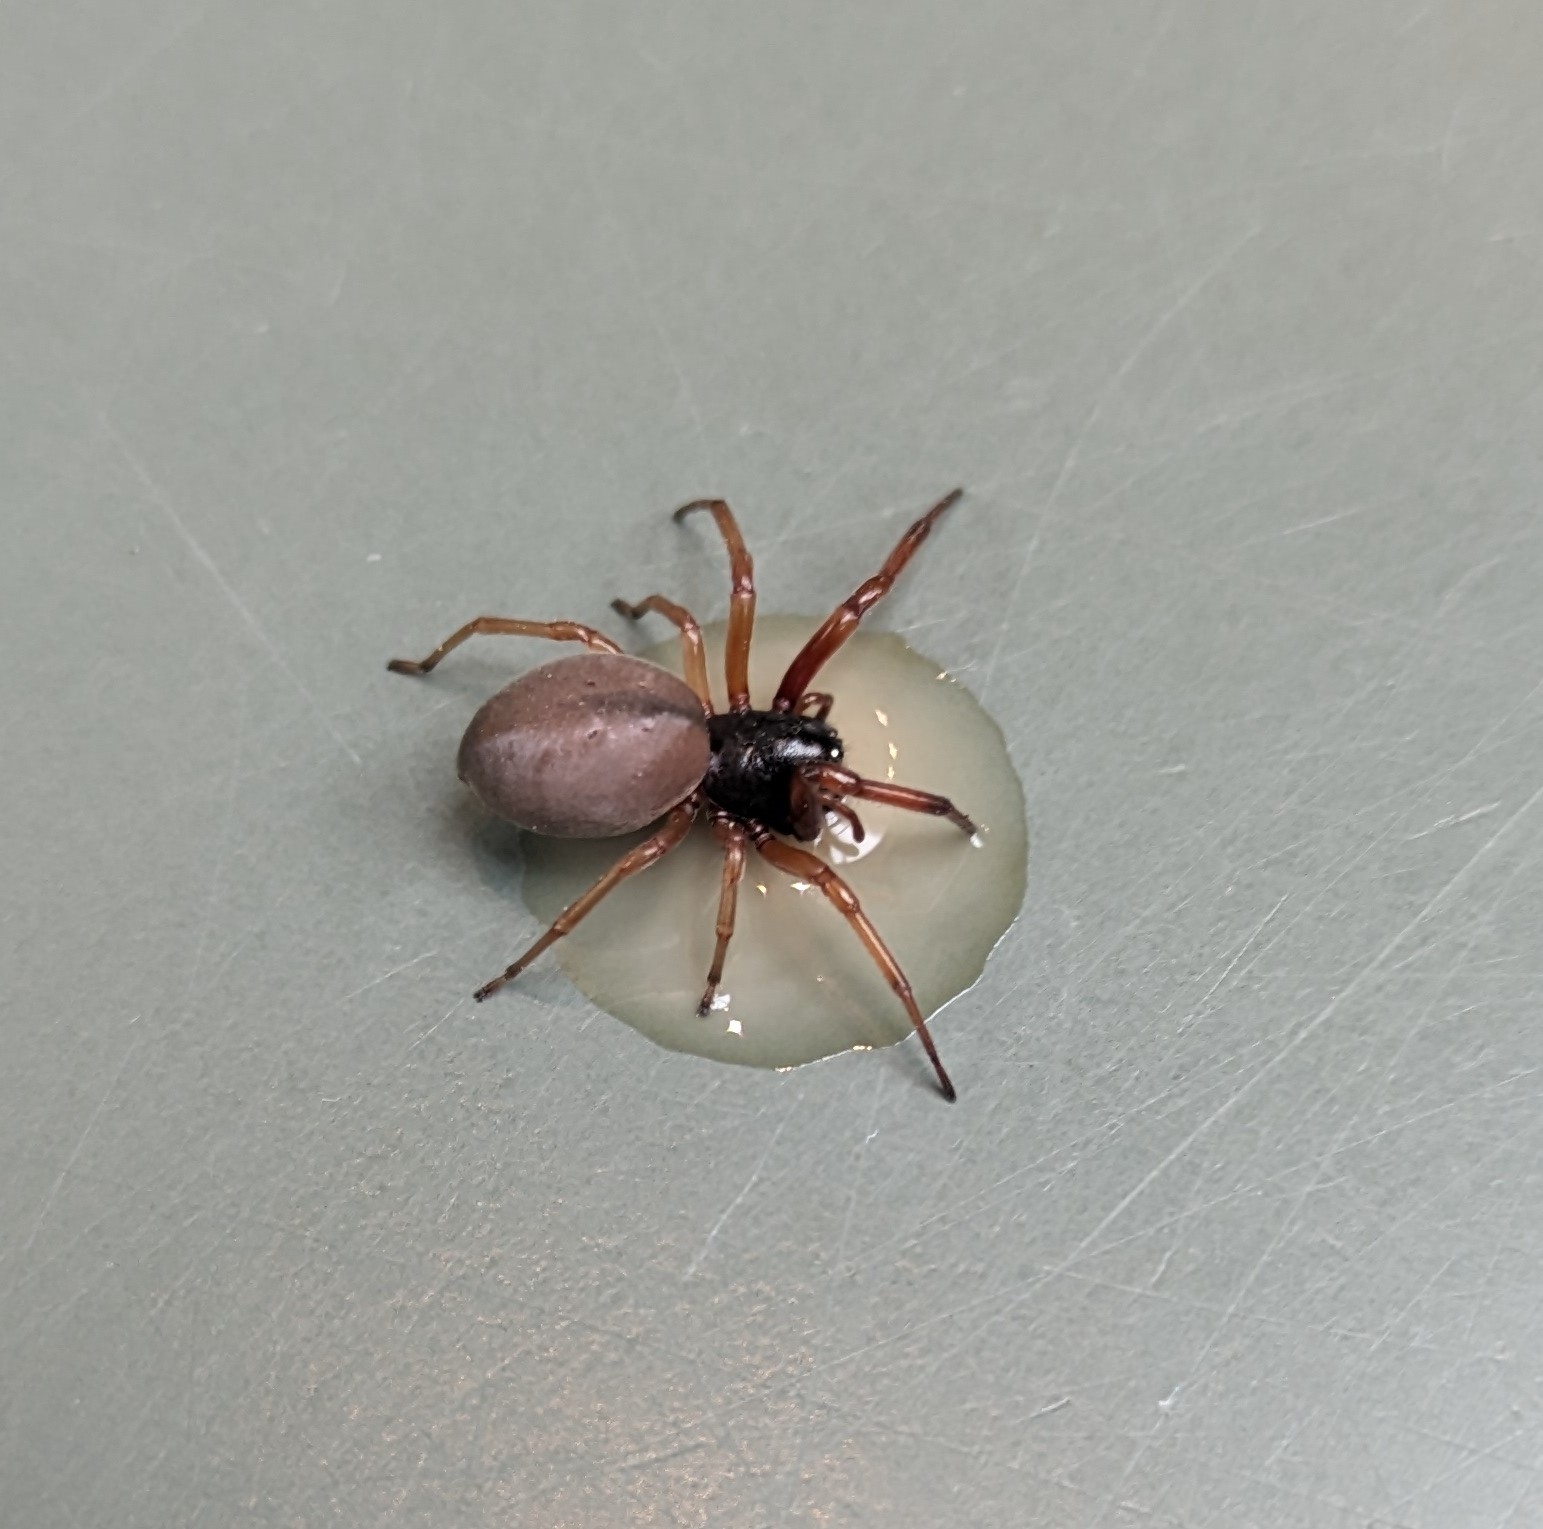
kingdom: Animalia
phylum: Arthropoda
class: Arachnida
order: Araneae
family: Trachelidae
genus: Trachelas
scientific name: Trachelas tranquillus
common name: Broad-faced sac spider
